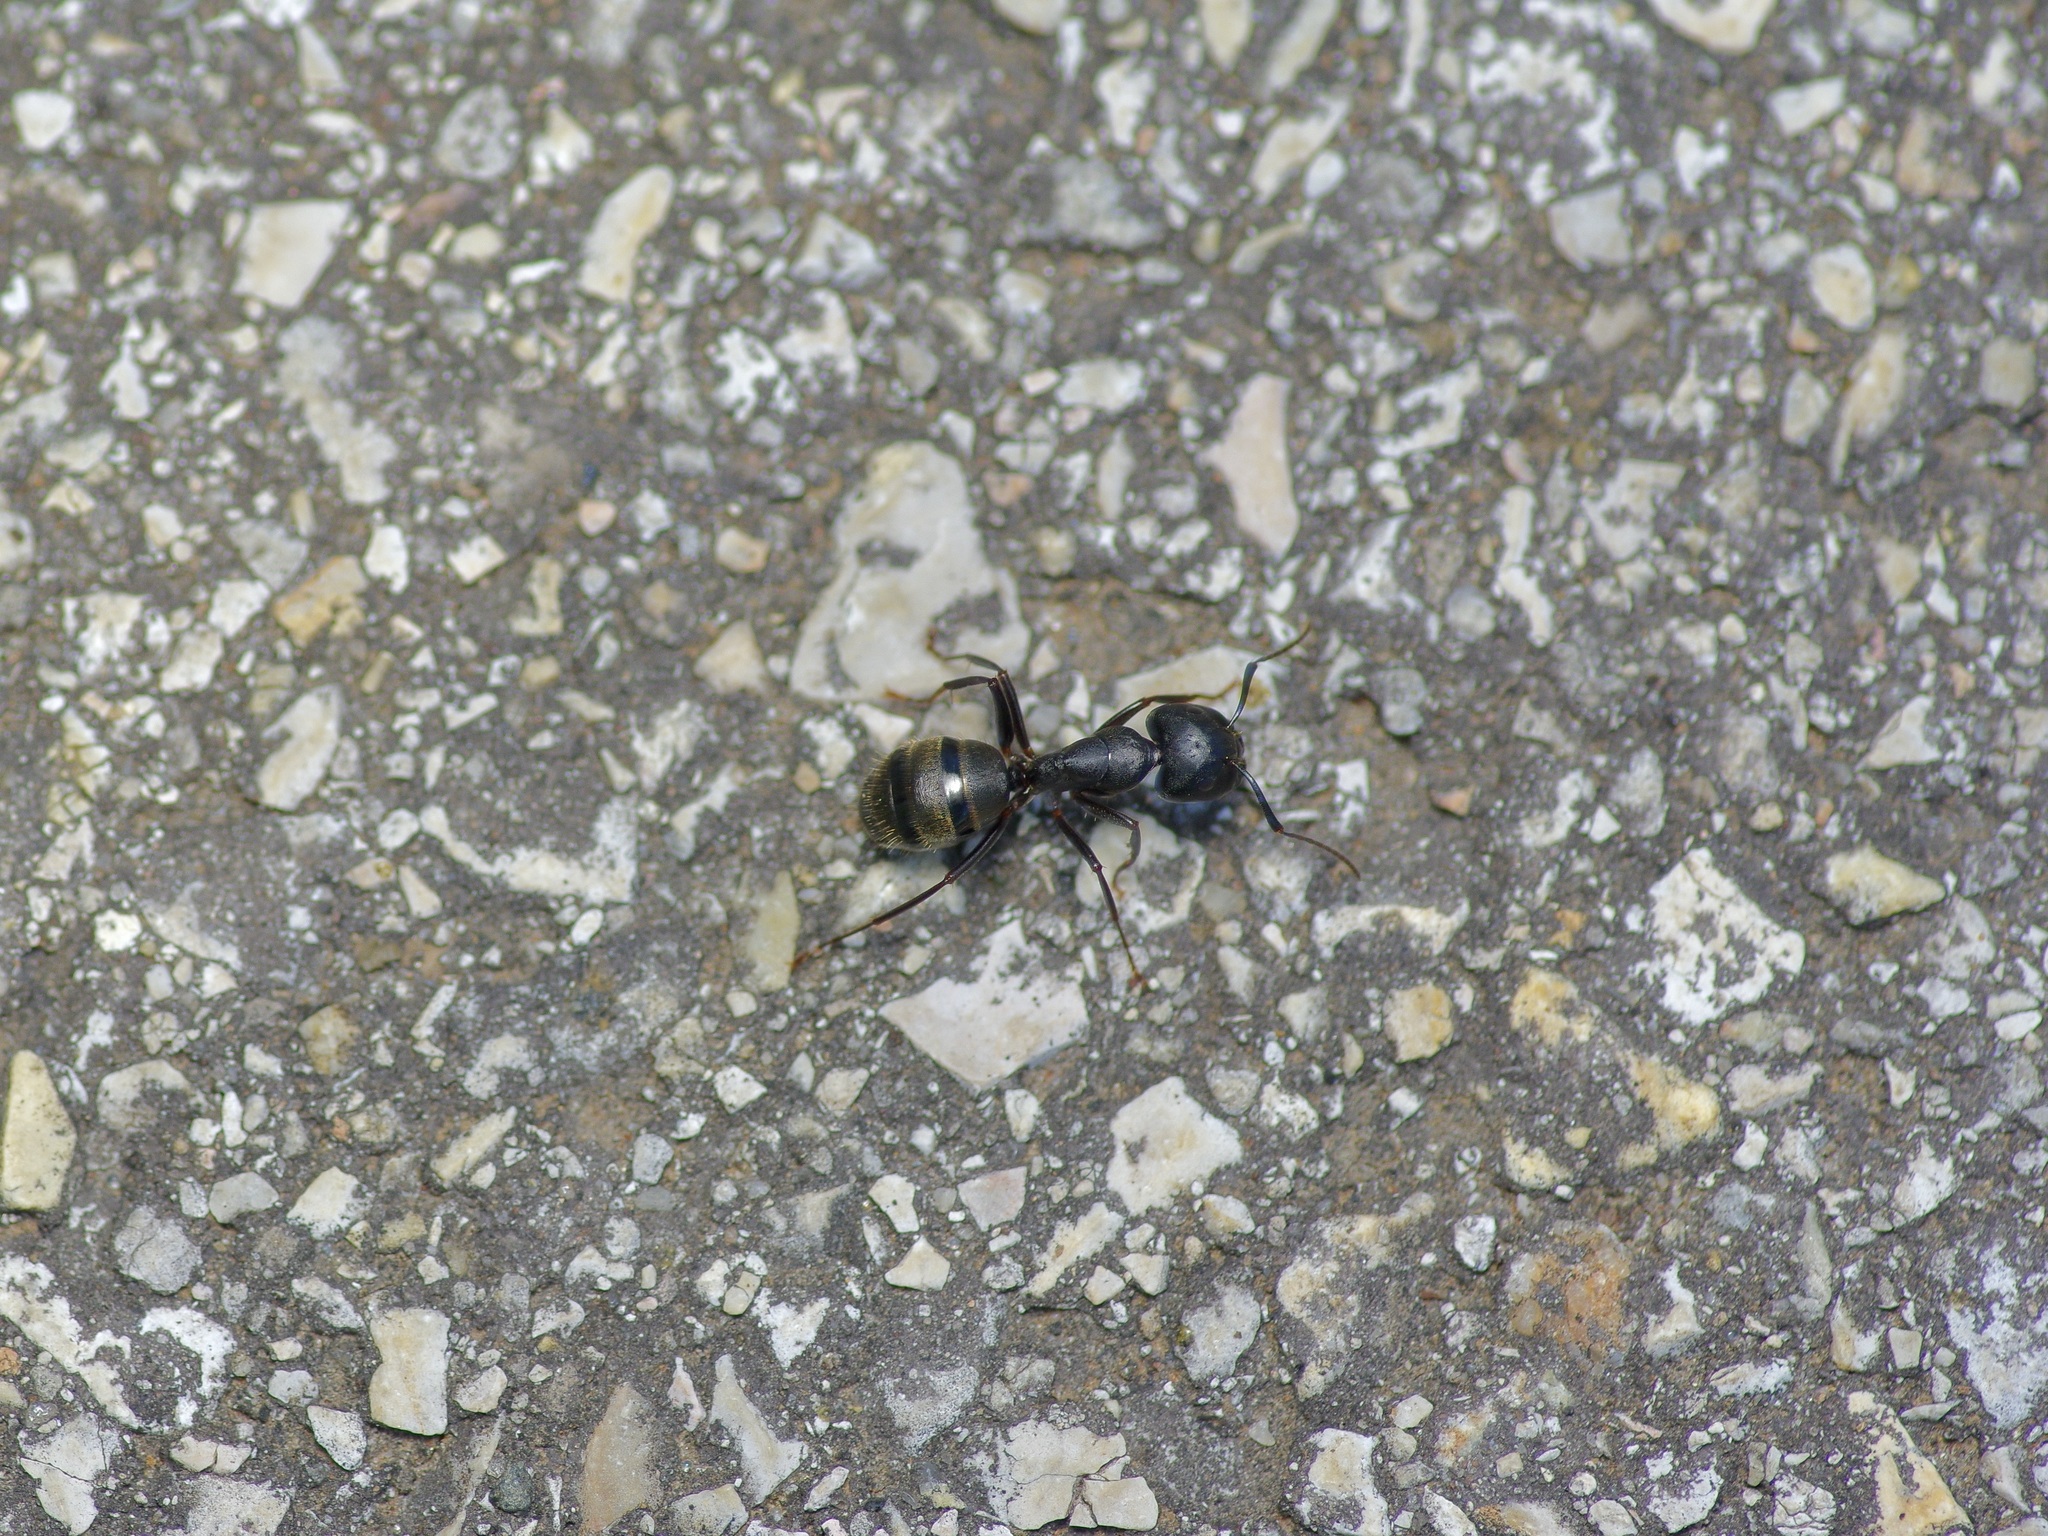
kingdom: Animalia
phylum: Arthropoda
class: Insecta
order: Hymenoptera
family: Formicidae
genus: Camponotus
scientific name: Camponotus pennsylvanicus
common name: Black carpenter ant
